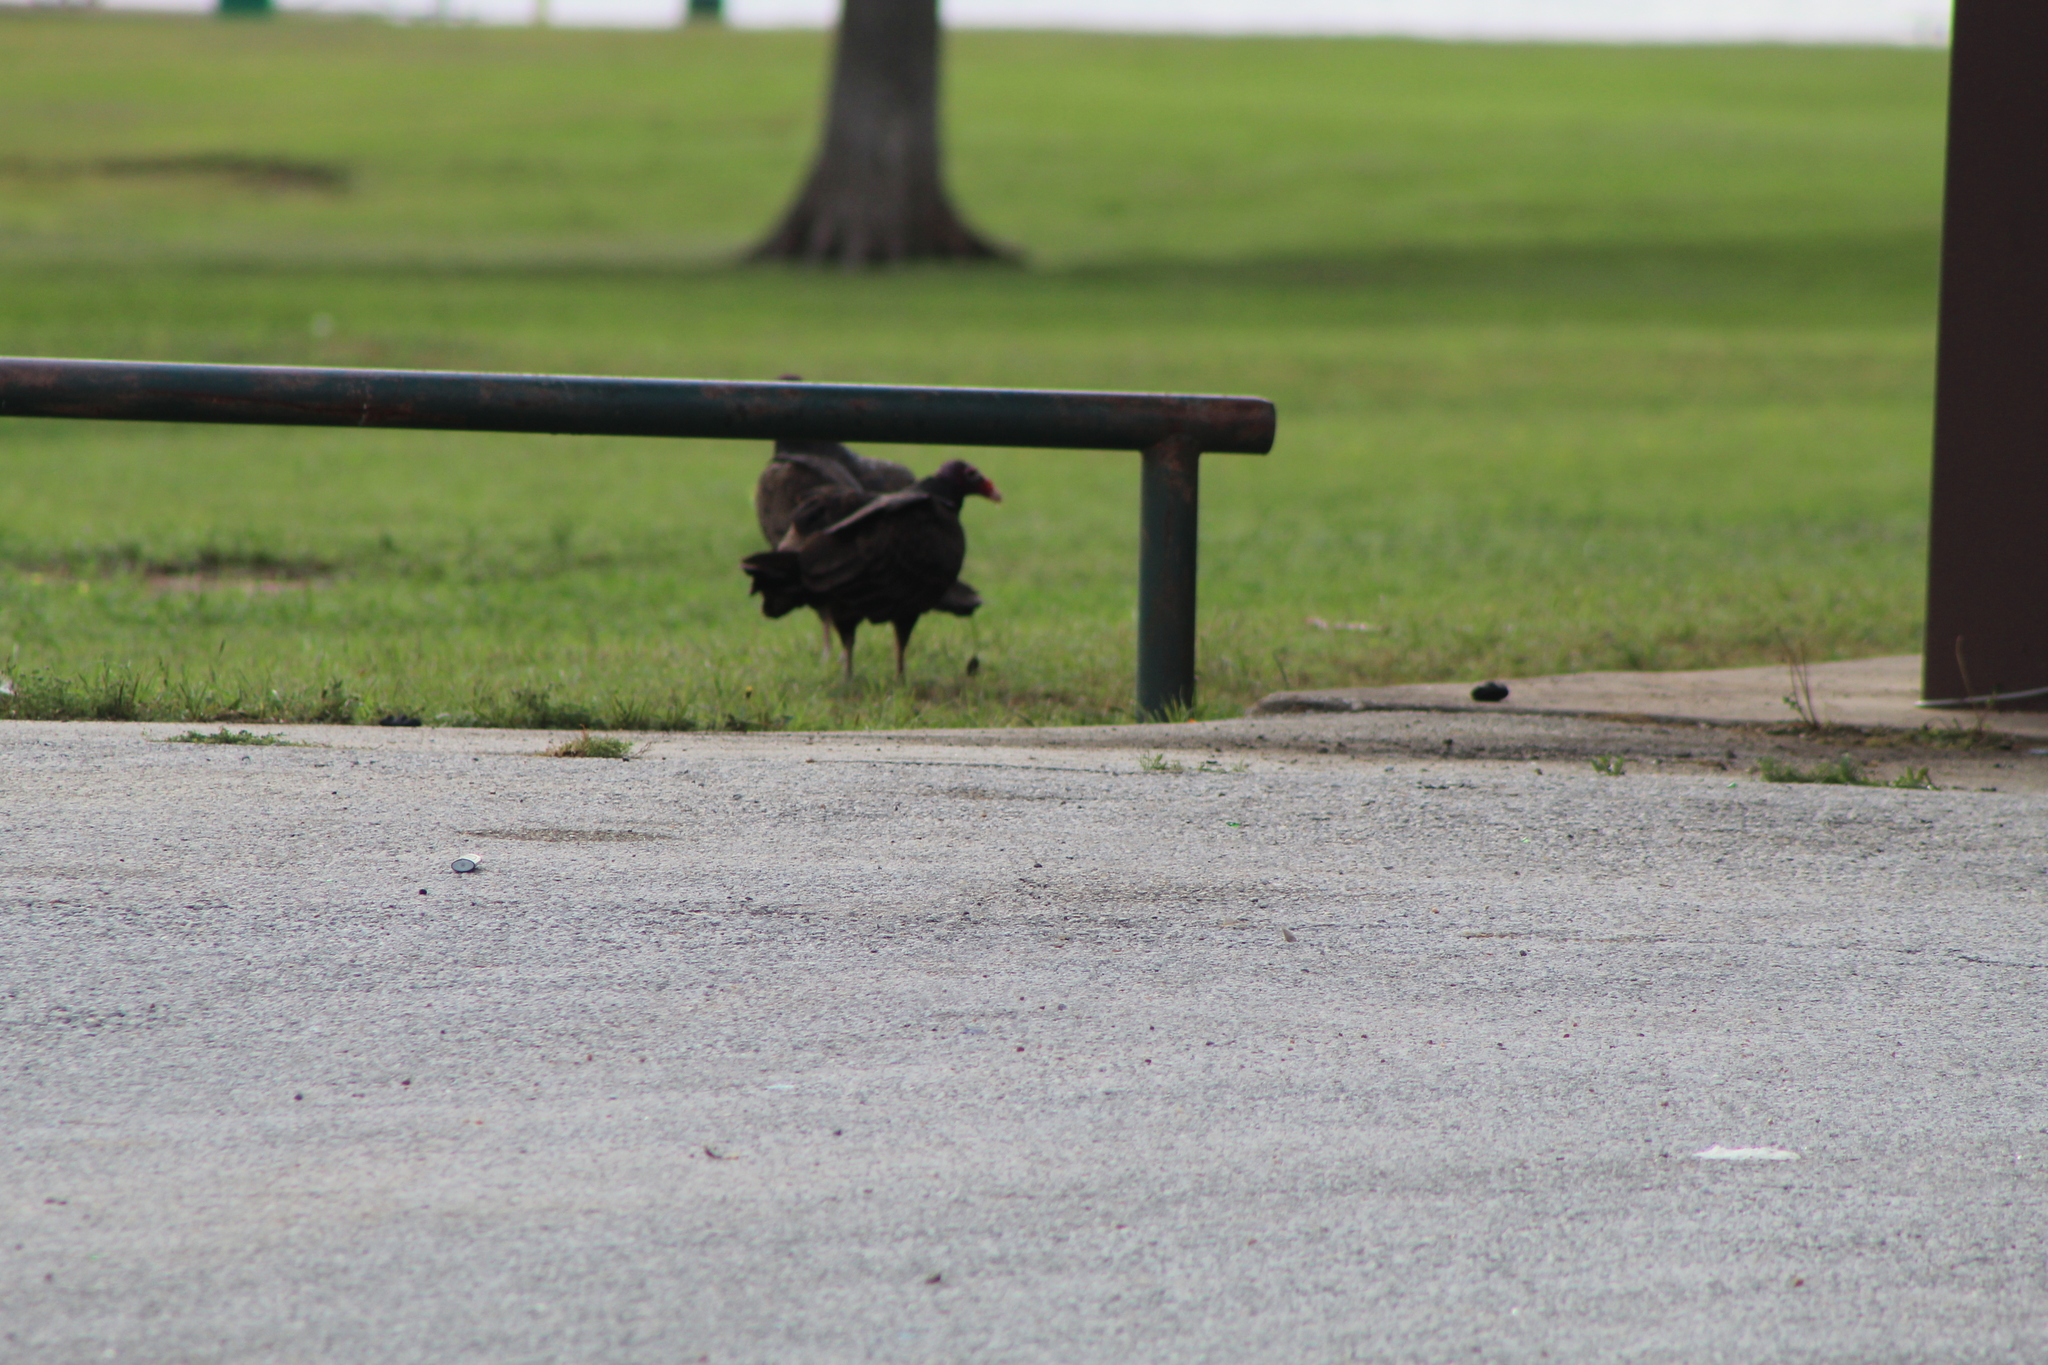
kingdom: Animalia
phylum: Chordata
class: Aves
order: Accipitriformes
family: Cathartidae
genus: Cathartes
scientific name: Cathartes aura
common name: Turkey vulture
